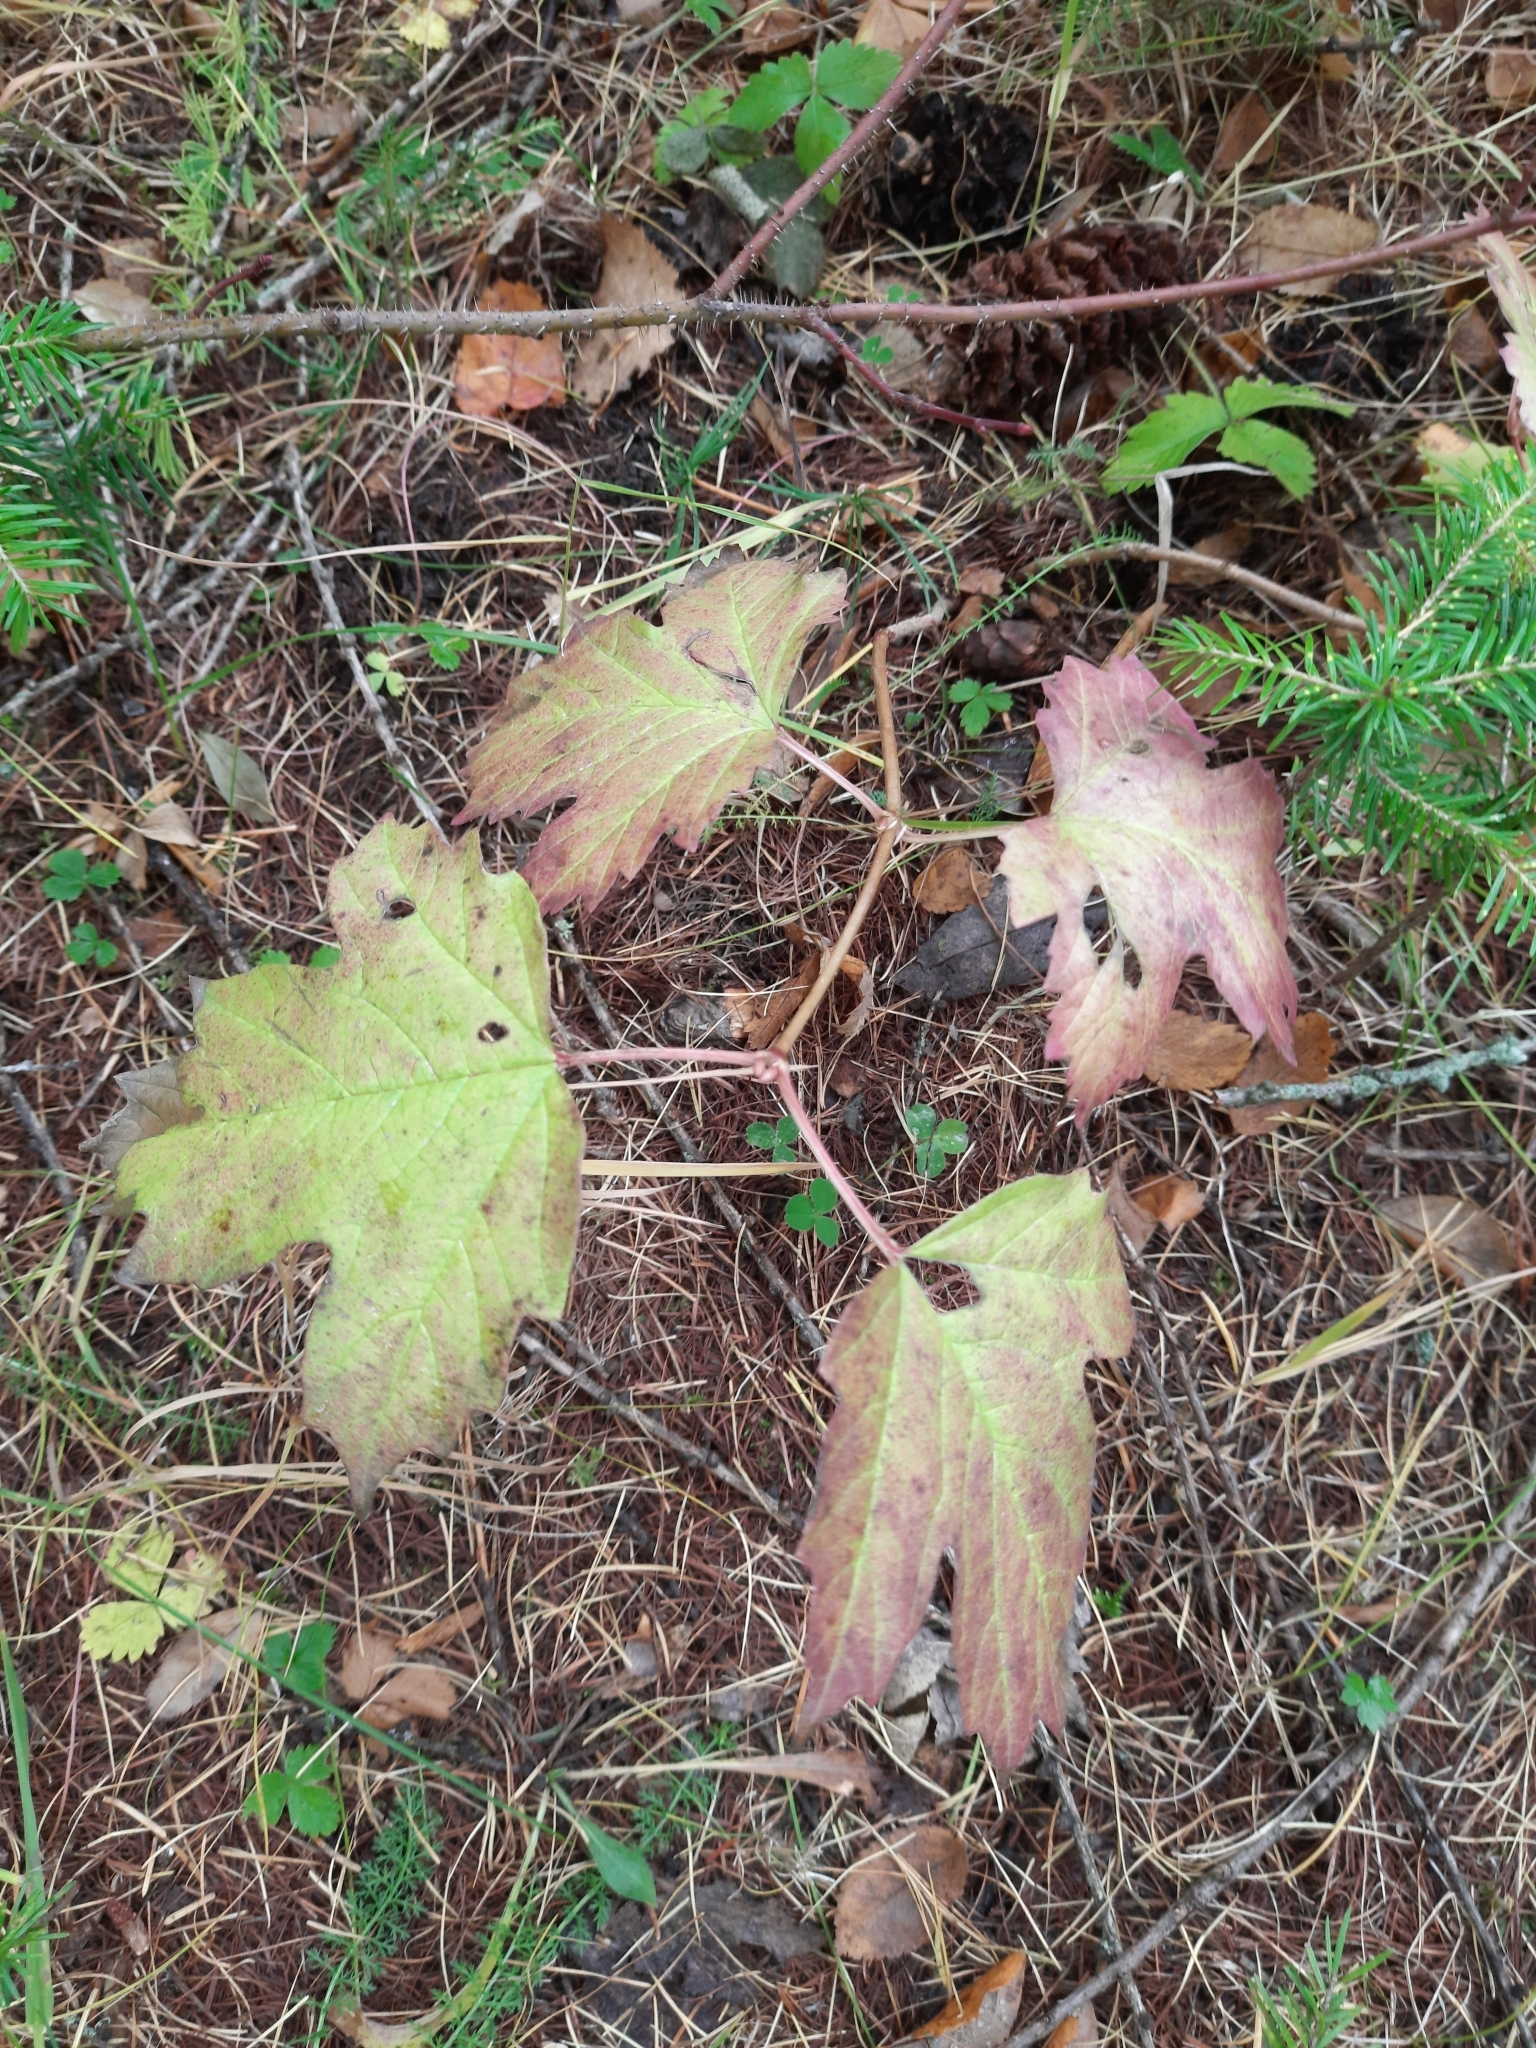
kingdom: Plantae
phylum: Tracheophyta
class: Magnoliopsida
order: Dipsacales
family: Viburnaceae
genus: Viburnum
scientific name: Viburnum opulus
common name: Guelder-rose
